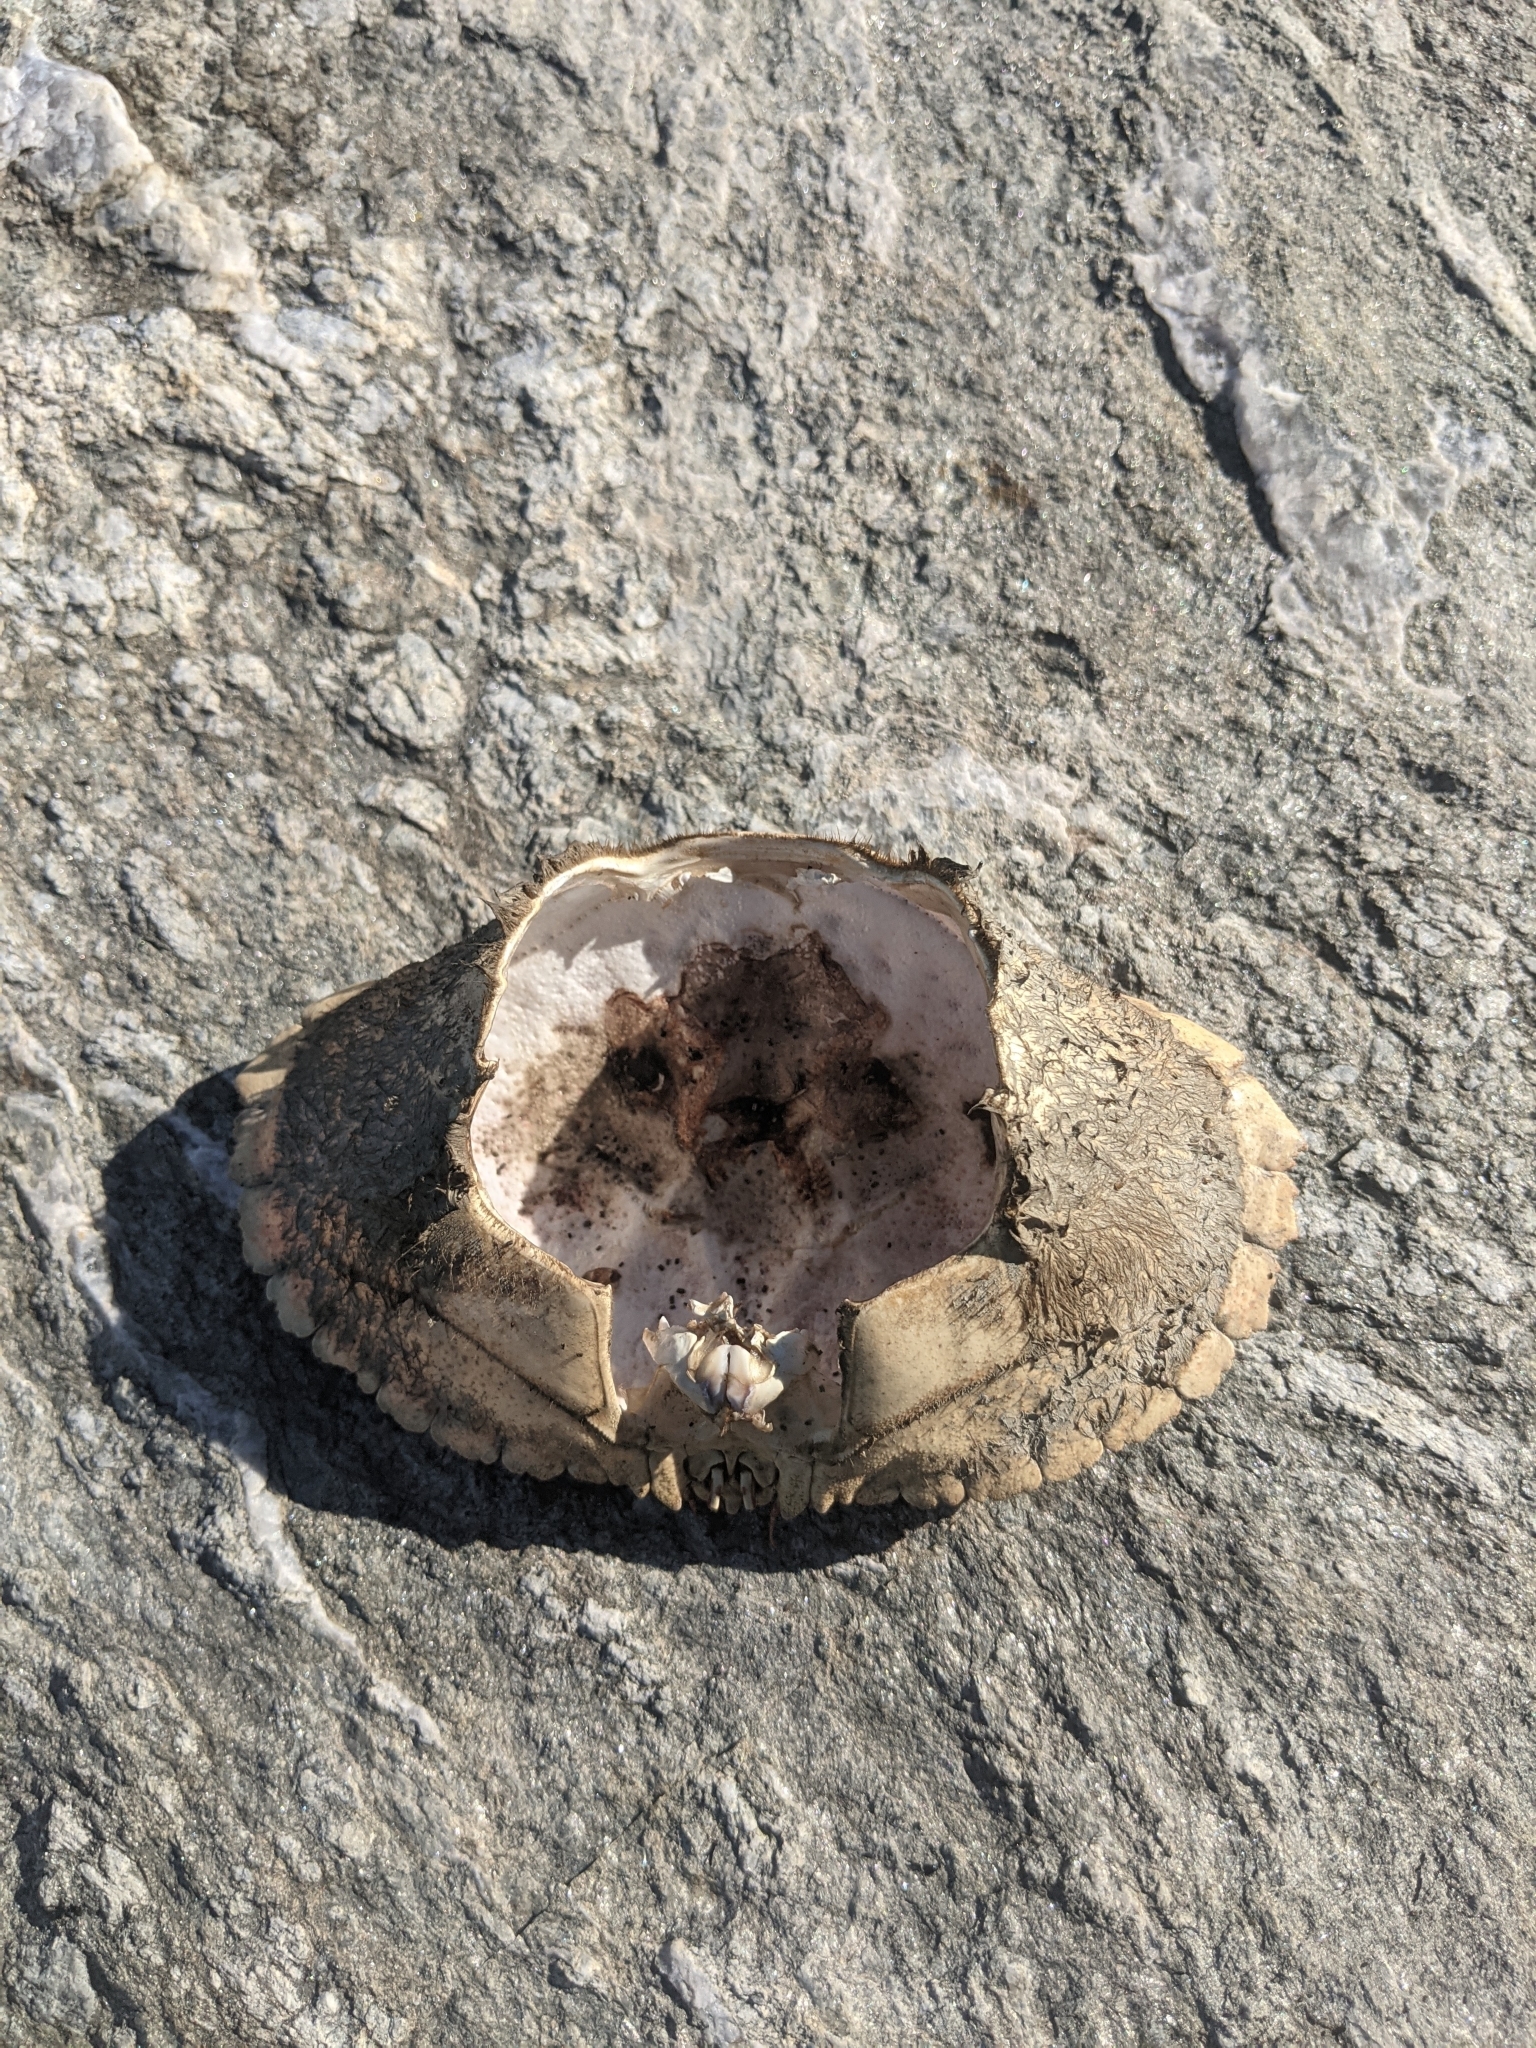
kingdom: Animalia
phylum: Arthropoda
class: Malacostraca
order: Decapoda
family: Cancridae
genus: Cancer
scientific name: Cancer borealis
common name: Jonah crab
